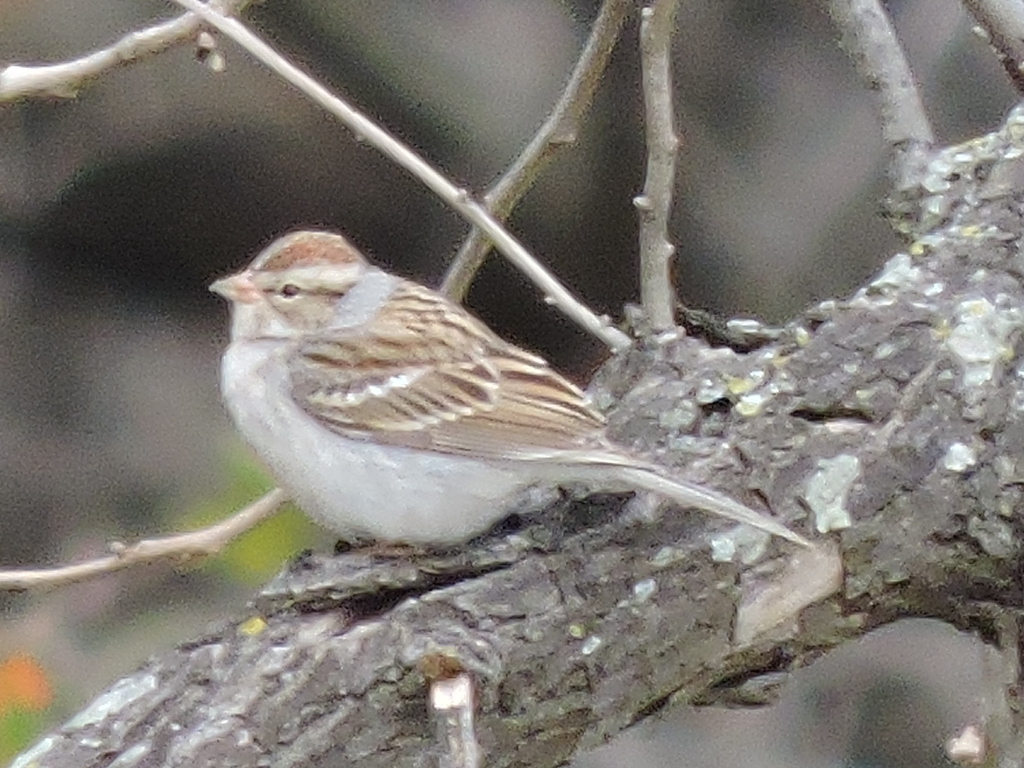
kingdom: Animalia
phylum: Chordata
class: Aves
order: Passeriformes
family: Passerellidae
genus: Spizella
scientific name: Spizella passerina
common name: Chipping sparrow
